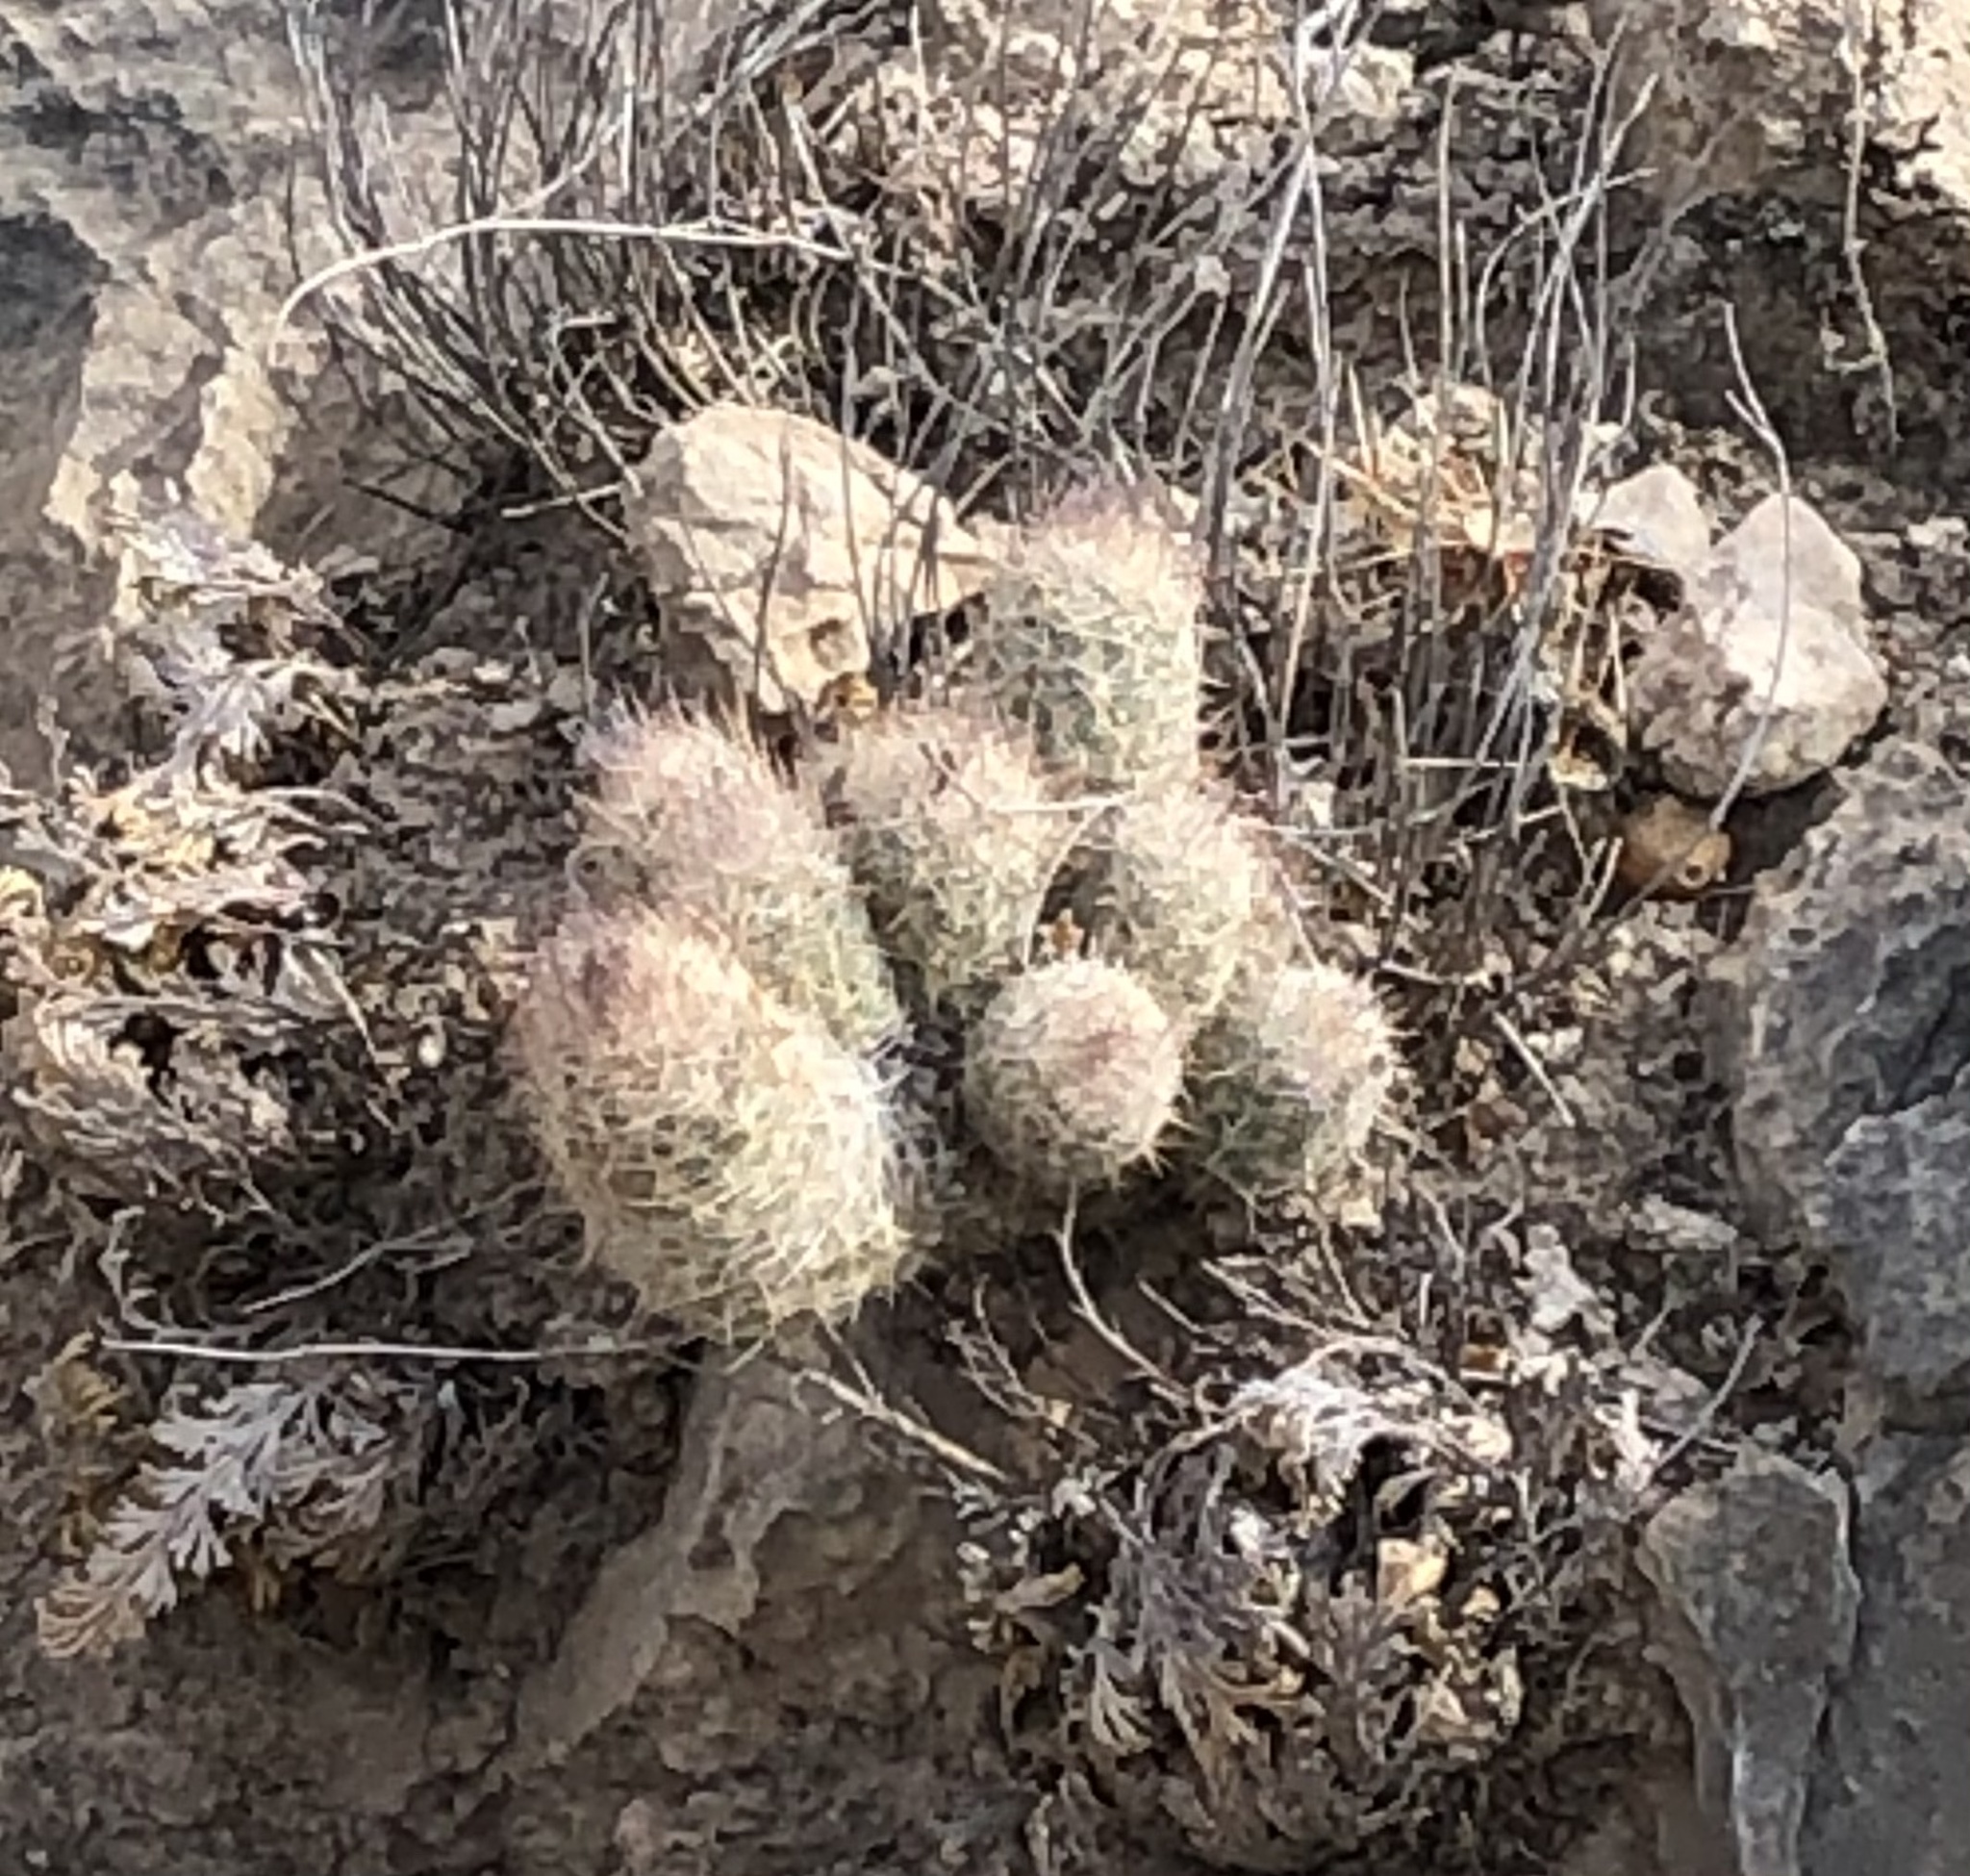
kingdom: Plantae
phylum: Tracheophyta
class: Magnoliopsida
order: Caryophyllales
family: Cactaceae
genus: Pelecyphora
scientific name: Pelecyphora tuberculosa
